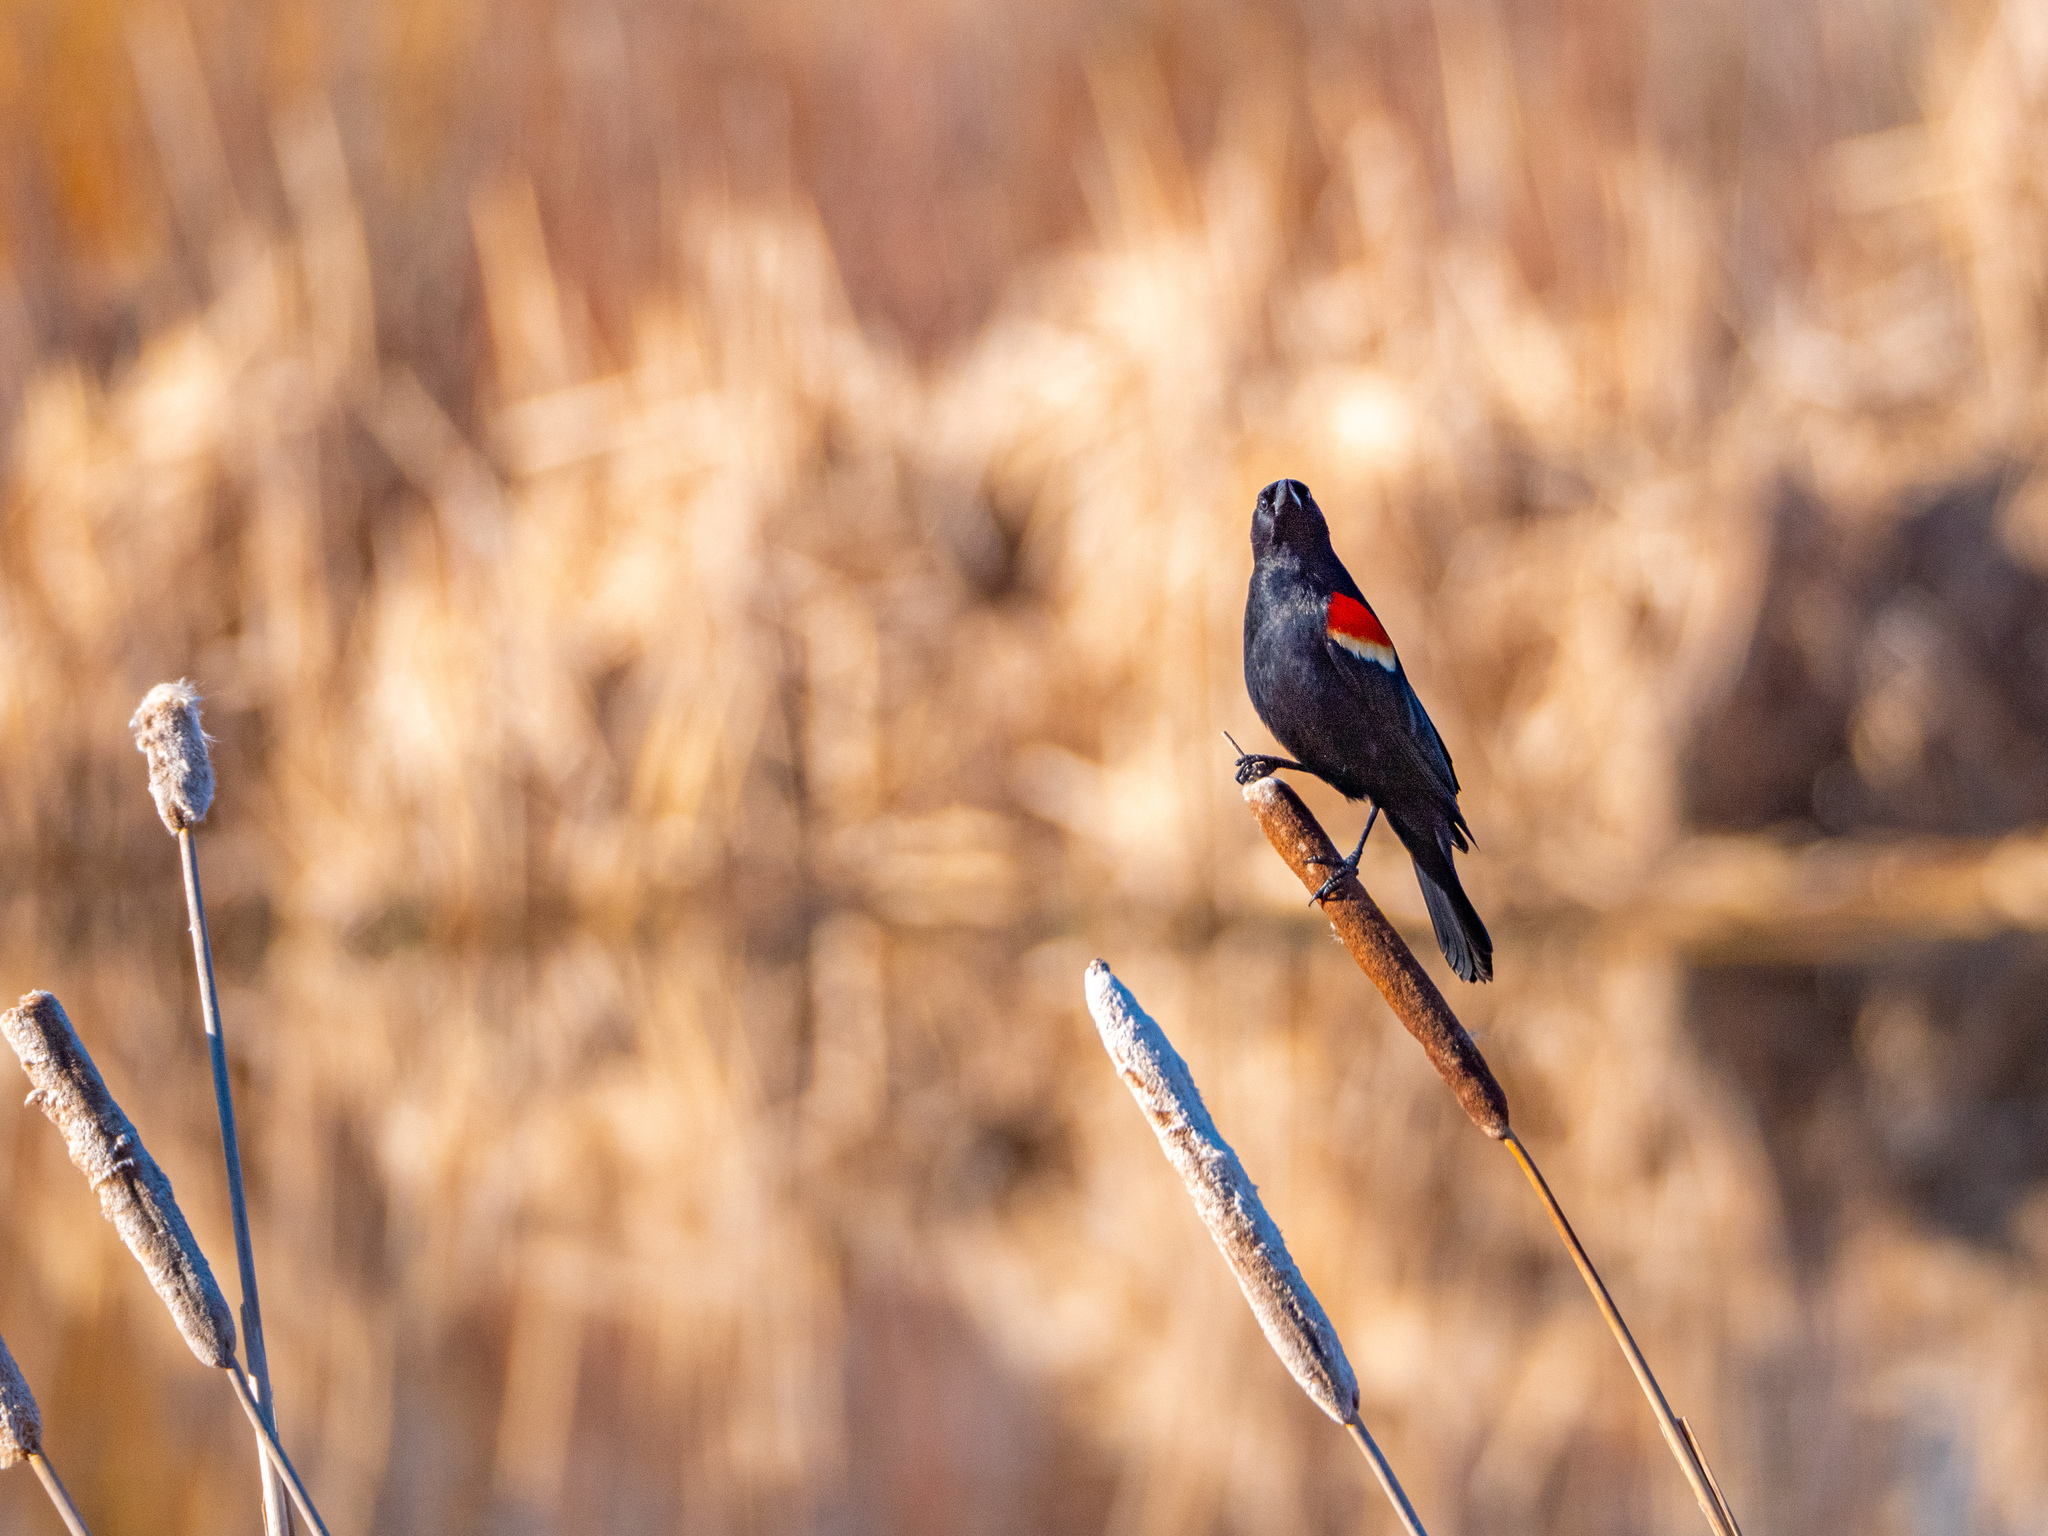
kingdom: Animalia
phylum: Chordata
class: Aves
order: Passeriformes
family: Icteridae
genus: Agelaius
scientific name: Agelaius phoeniceus
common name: Red-winged blackbird
